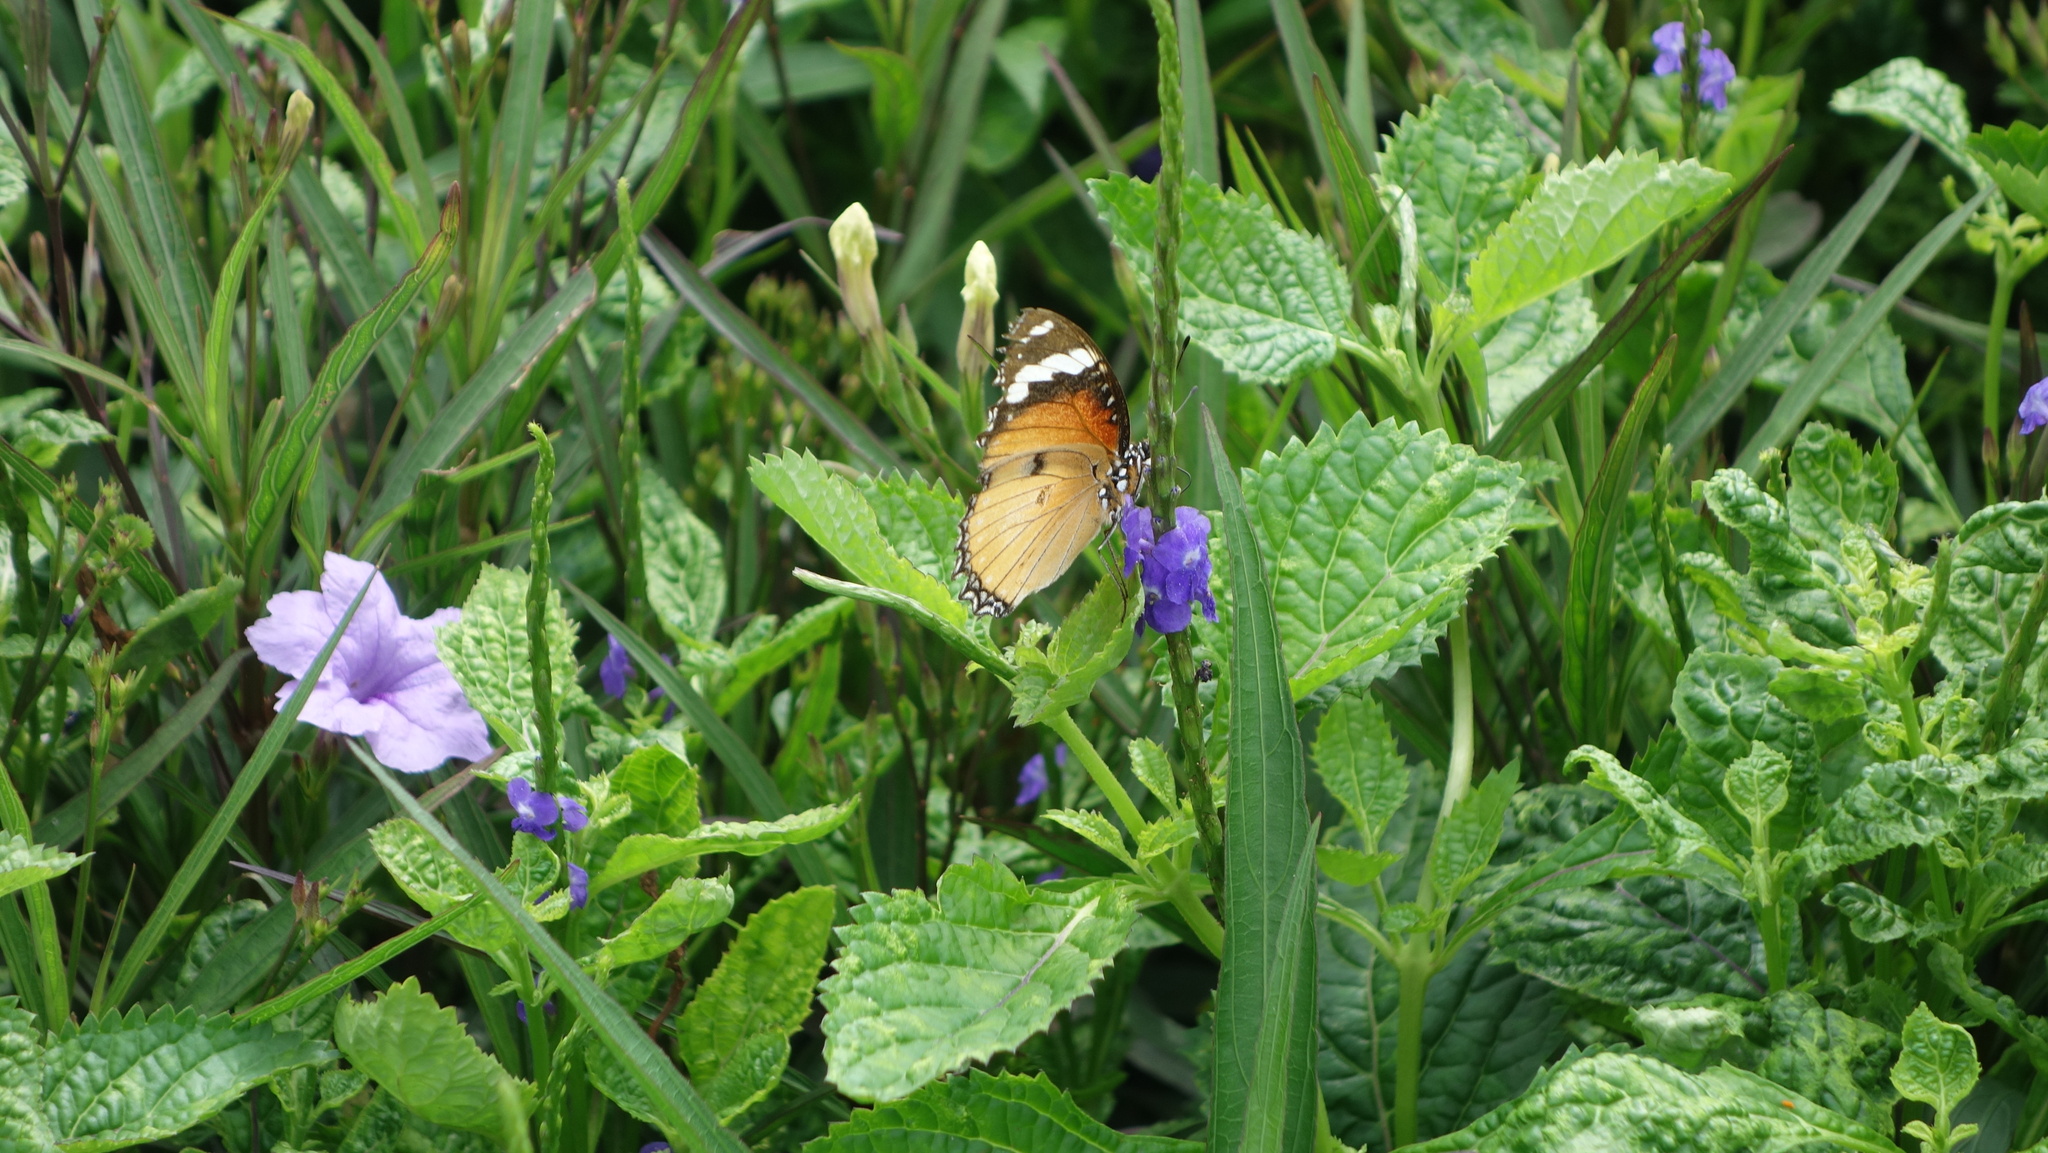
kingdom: Animalia
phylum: Arthropoda
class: Insecta
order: Lepidoptera
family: Nymphalidae
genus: Hypolimnas
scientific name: Hypolimnas misippus
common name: False plain tiger
